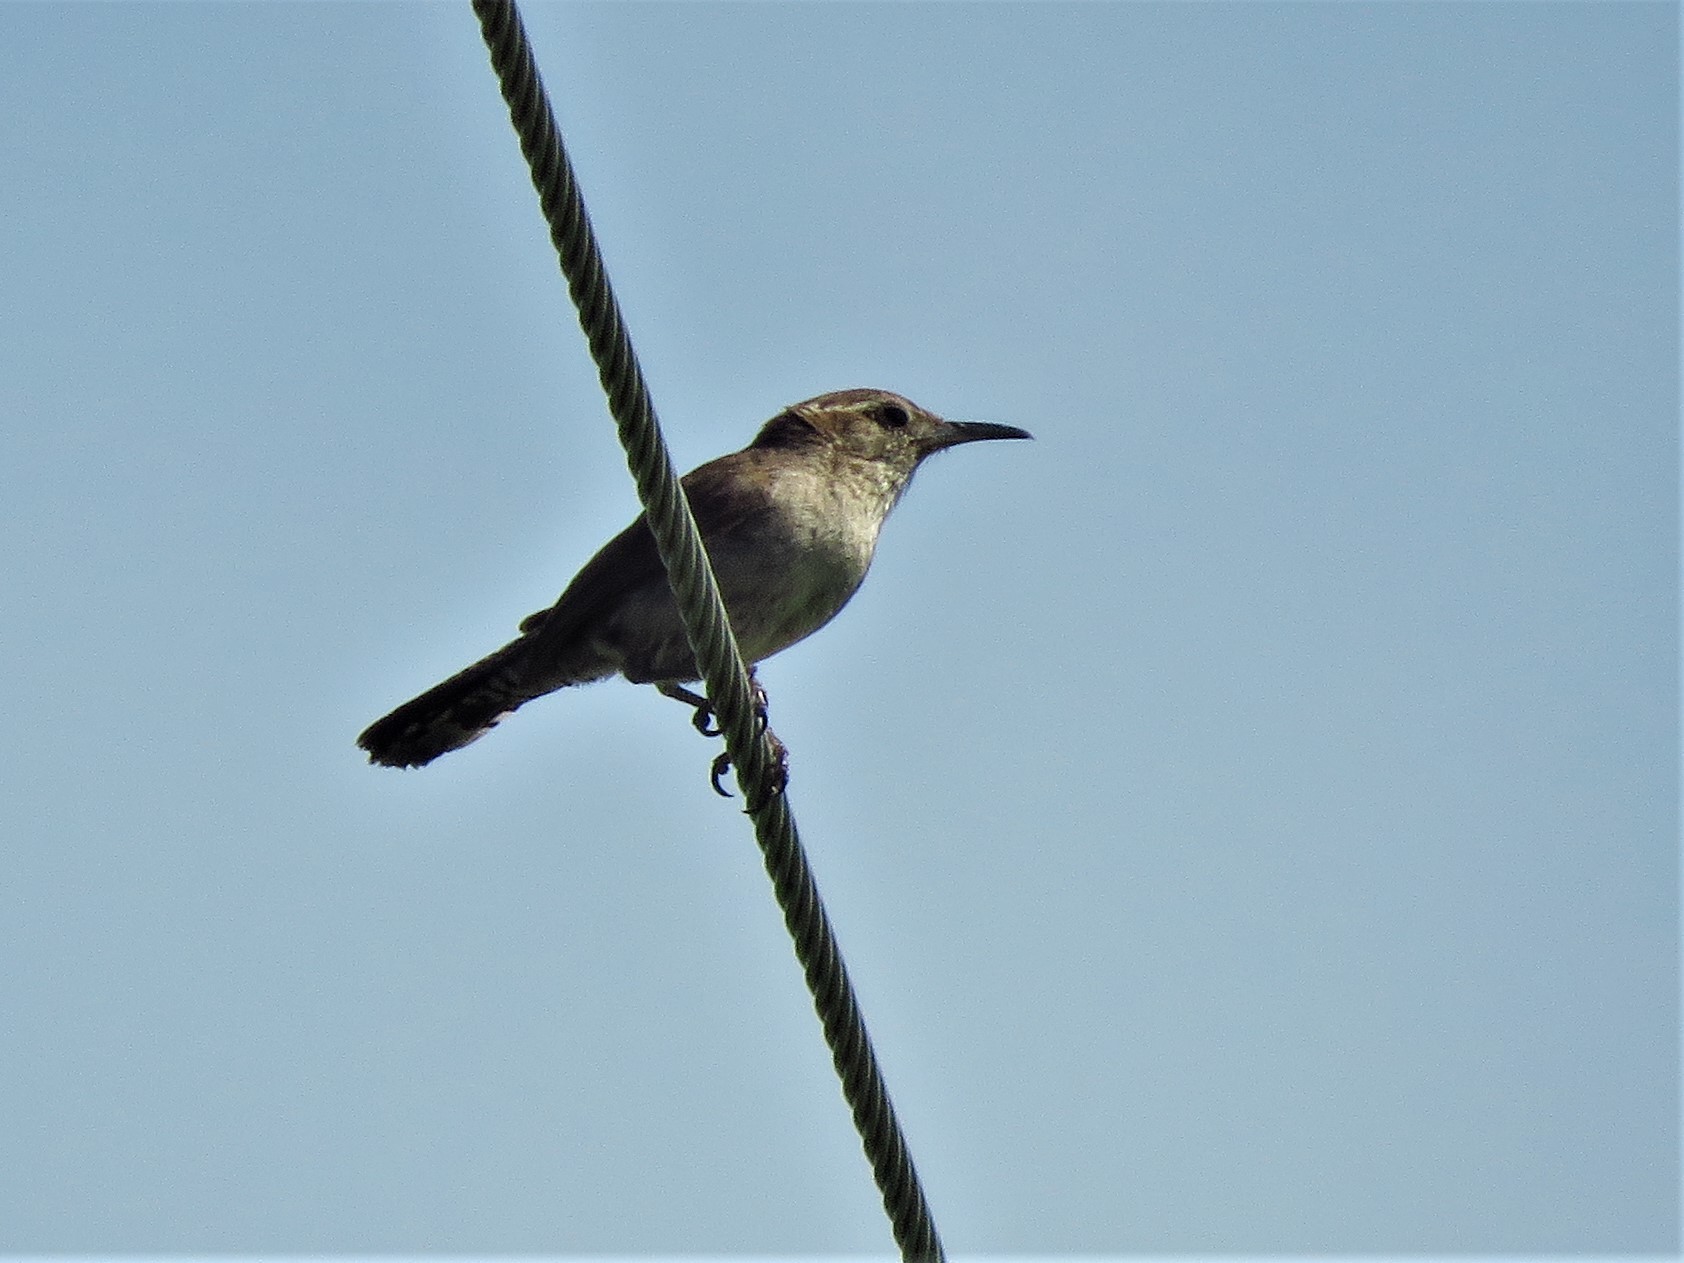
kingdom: Animalia
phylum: Chordata
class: Aves
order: Passeriformes
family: Troglodytidae
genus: Thryomanes
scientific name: Thryomanes bewickii
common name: Bewick's wren
